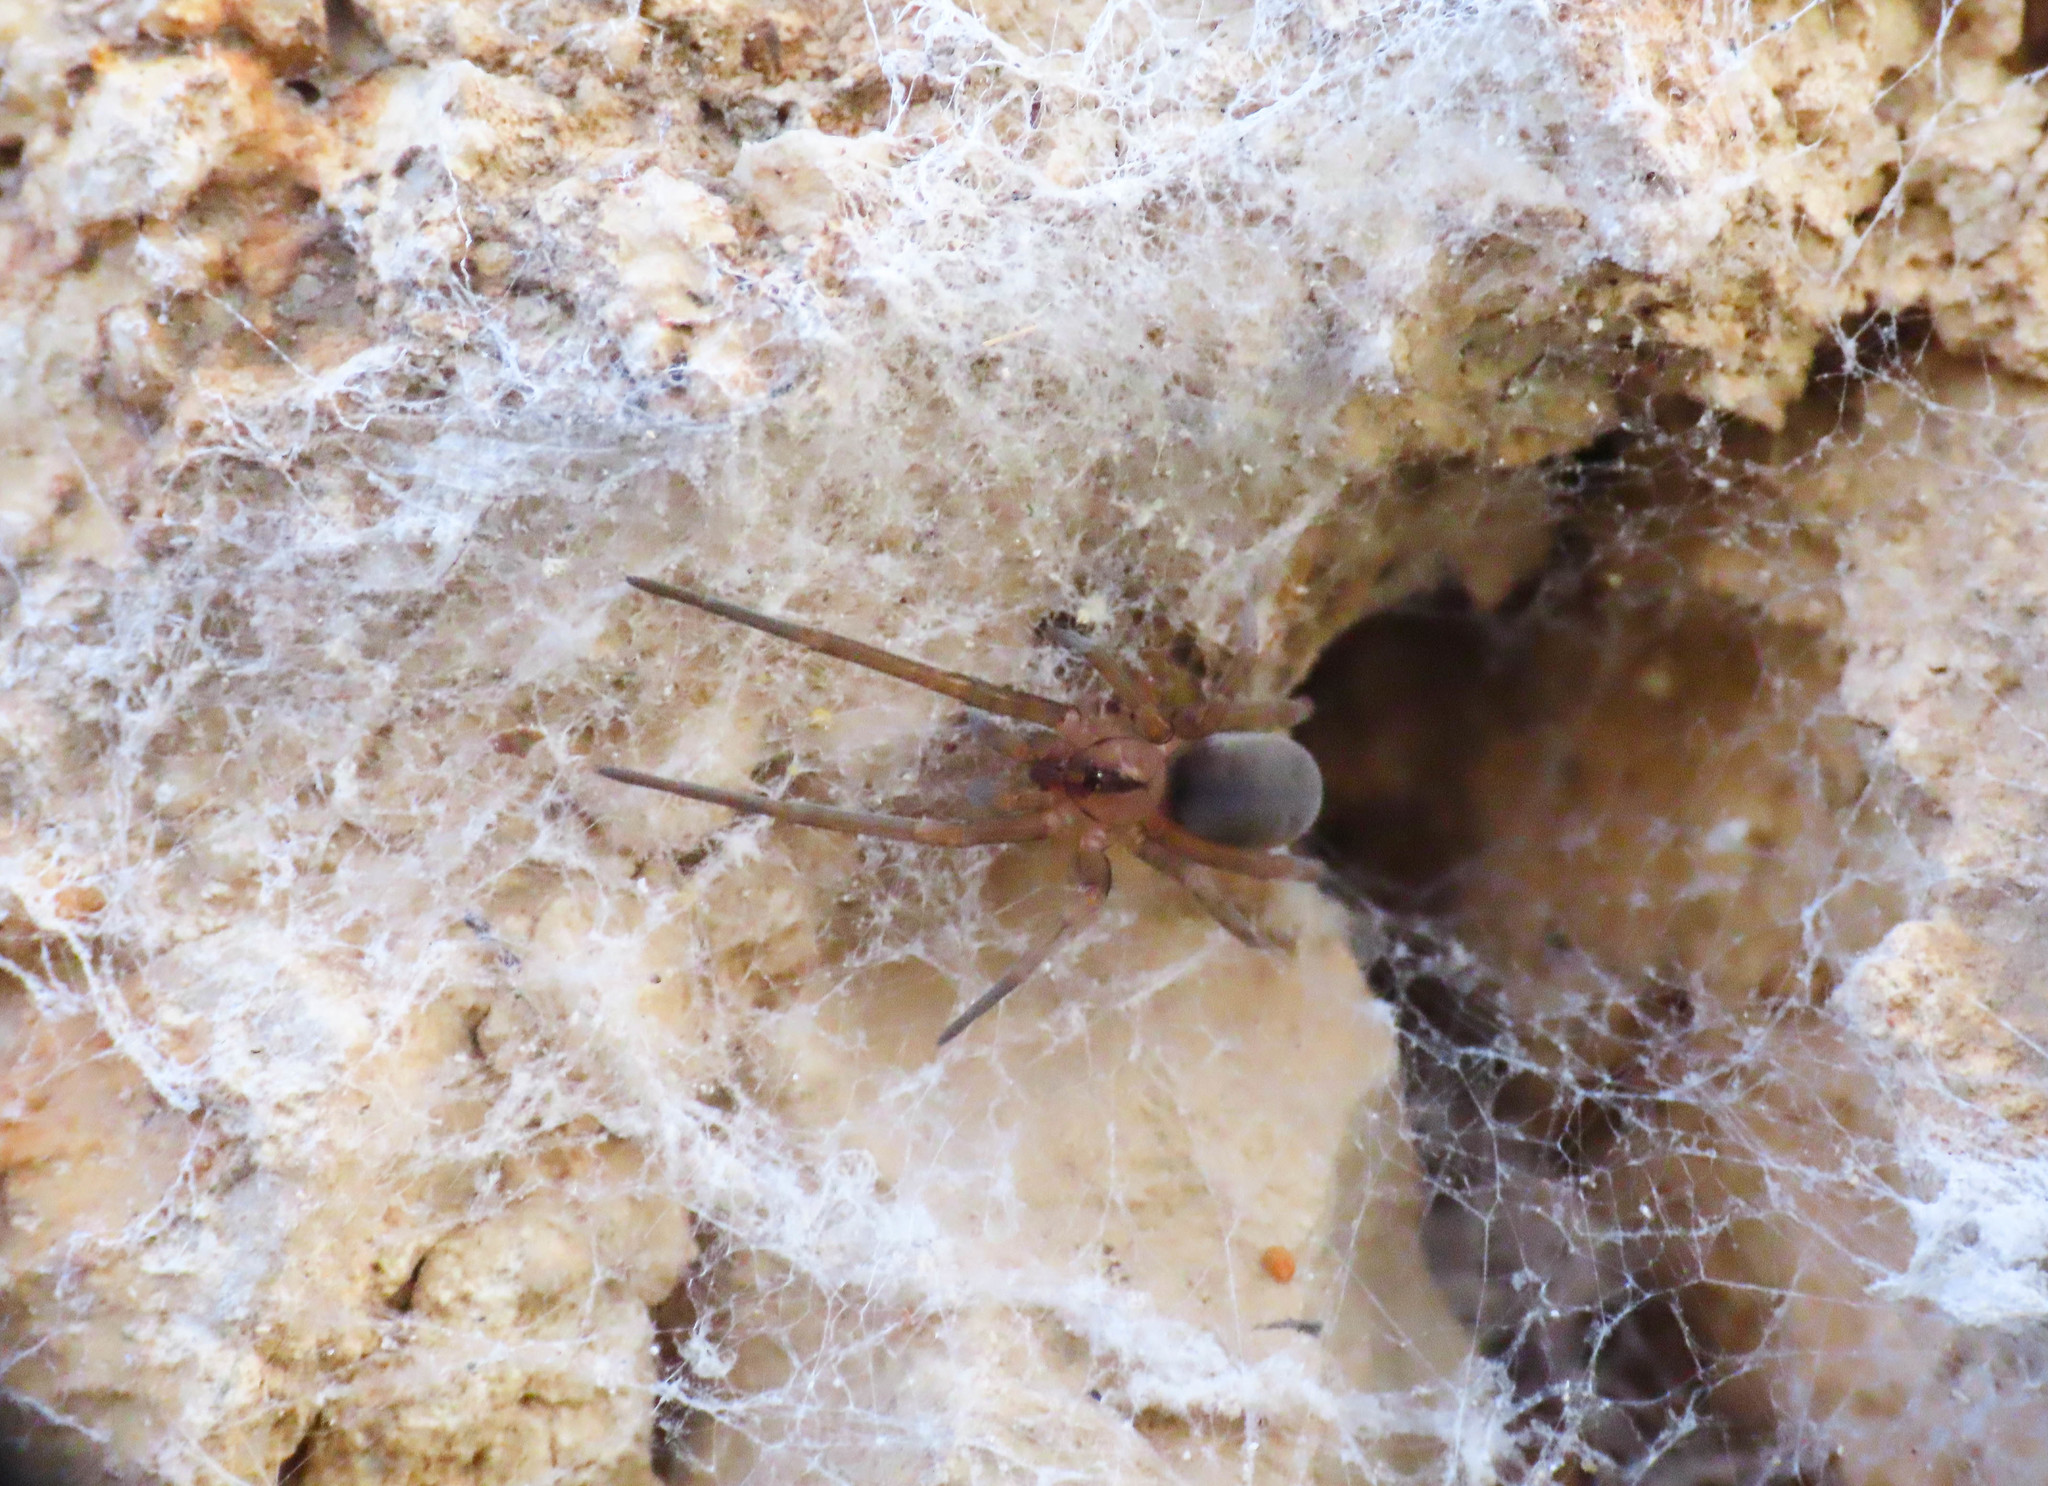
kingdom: Animalia
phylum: Arthropoda
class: Arachnida
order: Araneae
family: Filistatidae
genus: Filistata
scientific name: Filistata insidiatrix
